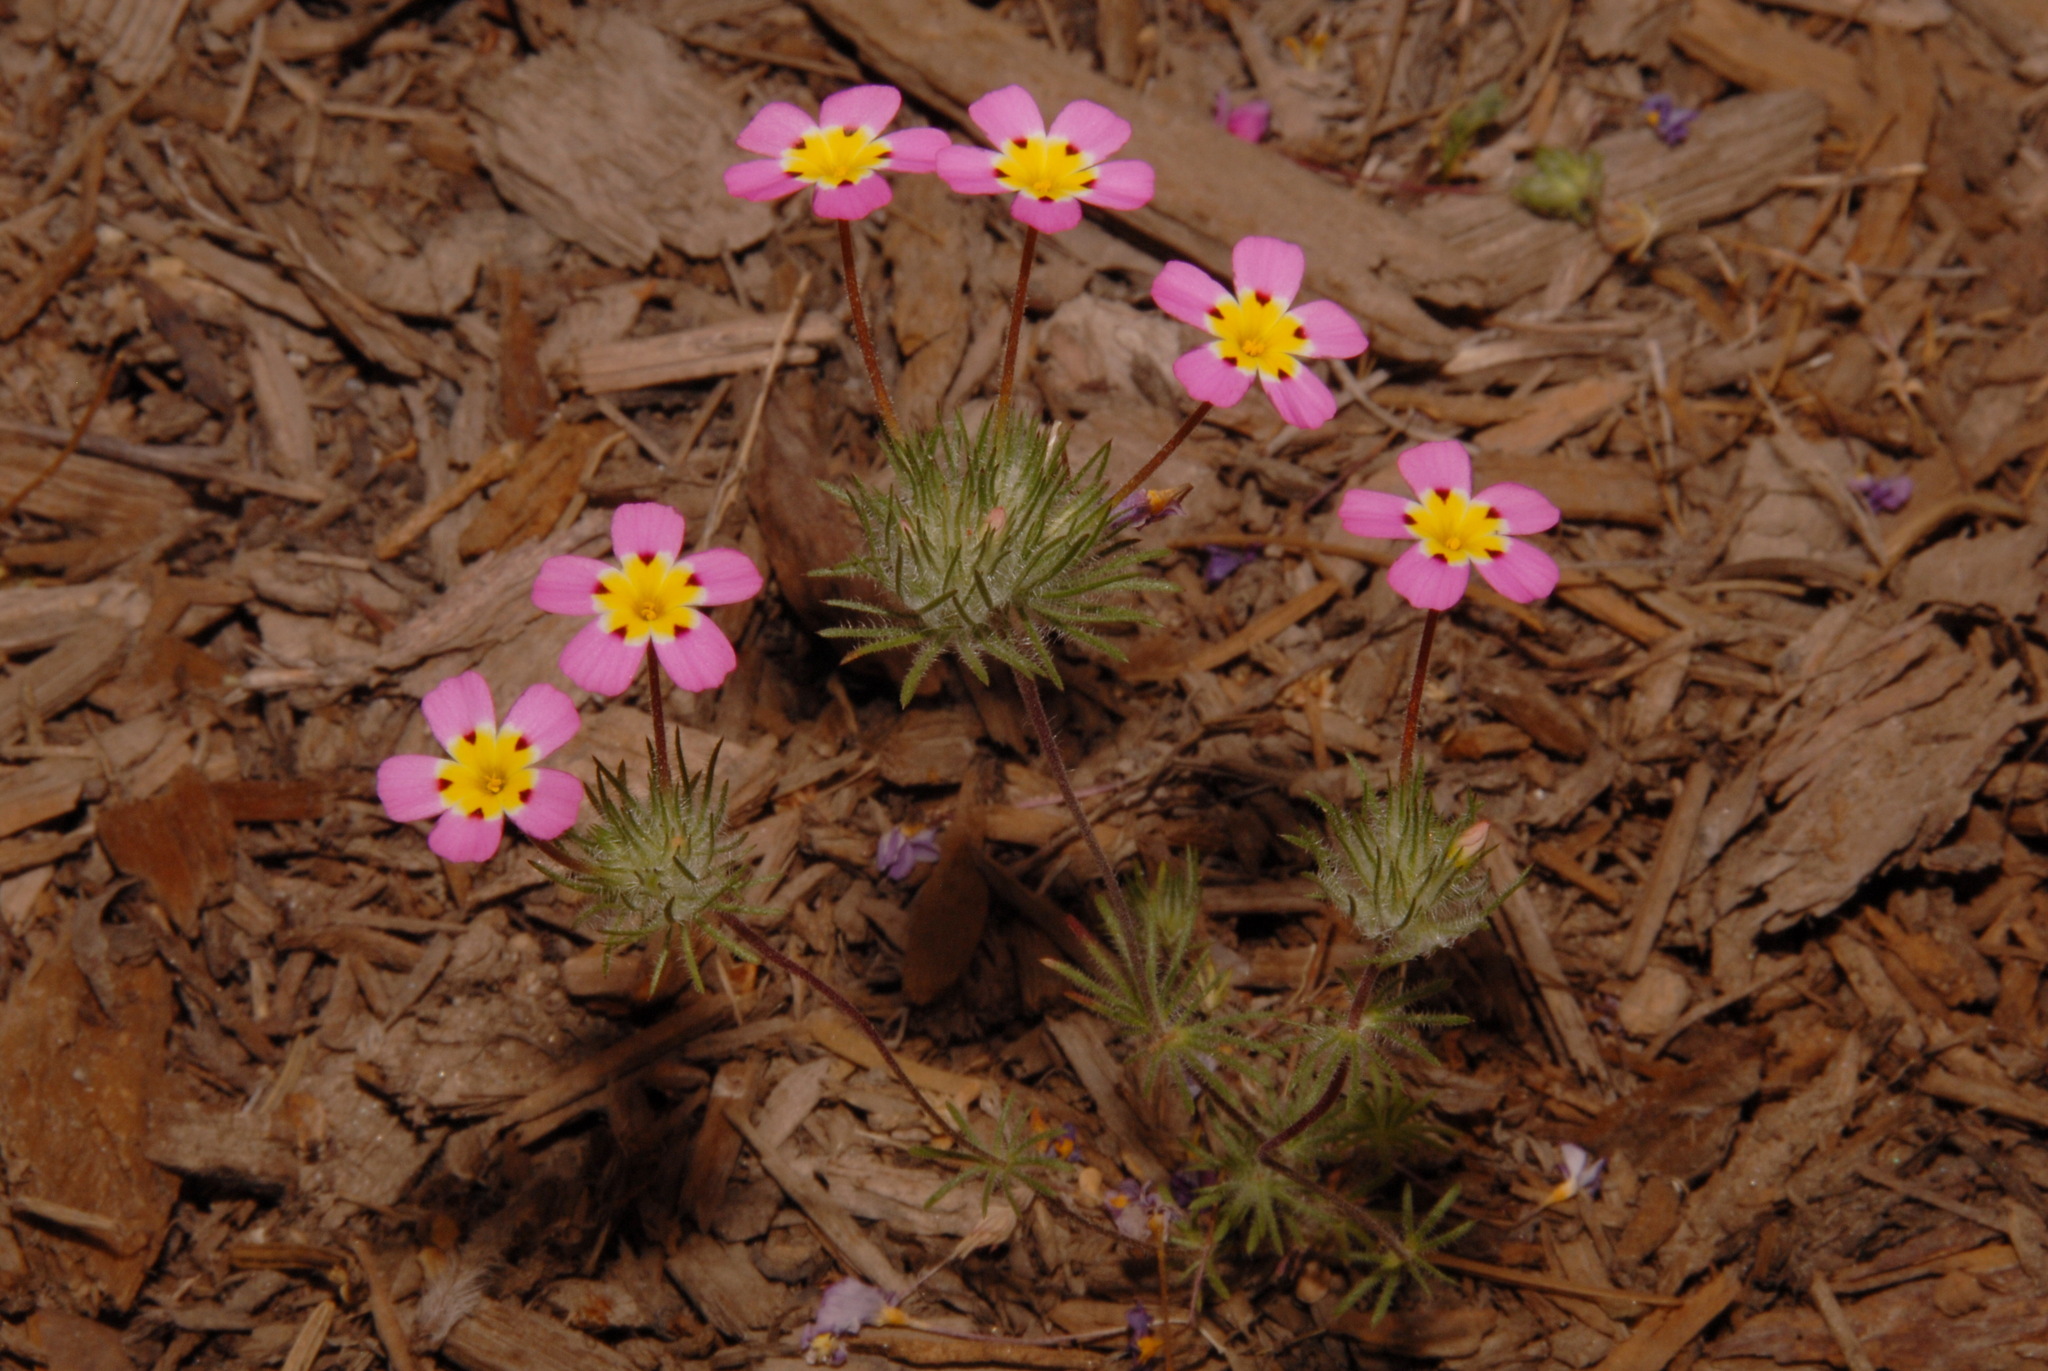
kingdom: Plantae
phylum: Tracheophyta
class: Magnoliopsida
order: Ericales
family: Polemoniaceae
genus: Leptosiphon
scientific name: Leptosiphon ciliatus
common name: Whiskerbrush
